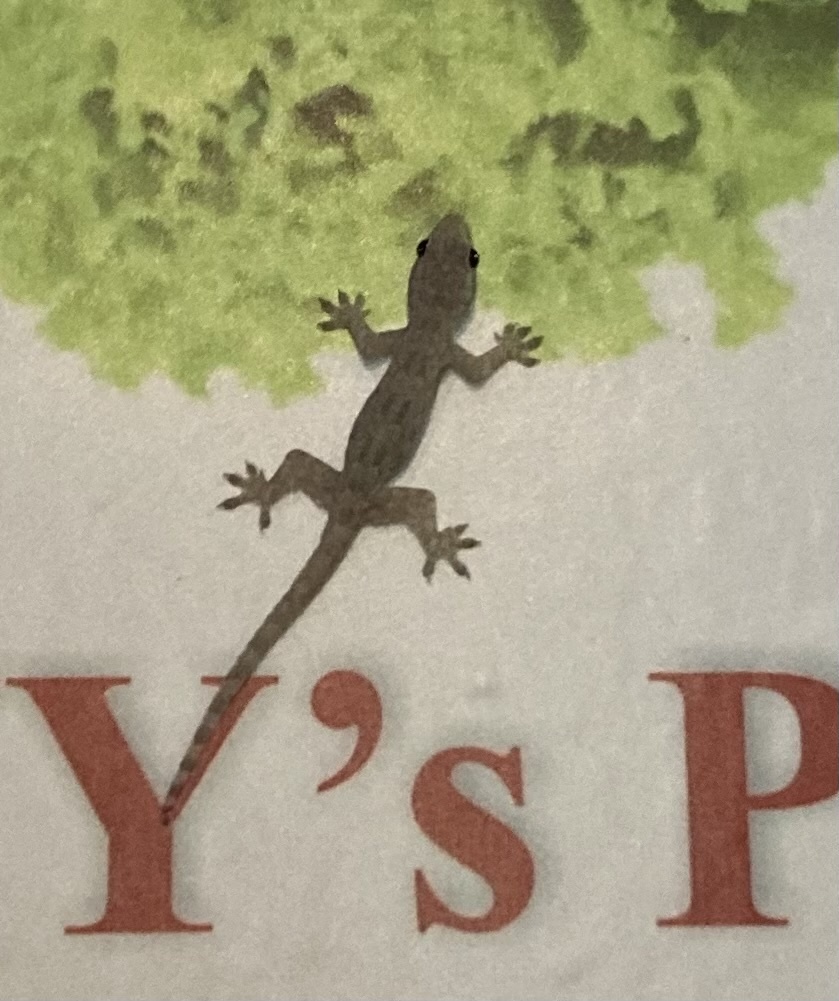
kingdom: Animalia
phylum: Chordata
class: Squamata
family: Gekkonidae
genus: Hemidactylus
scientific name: Hemidactylus platyurus
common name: Flat-tailed house gecko
